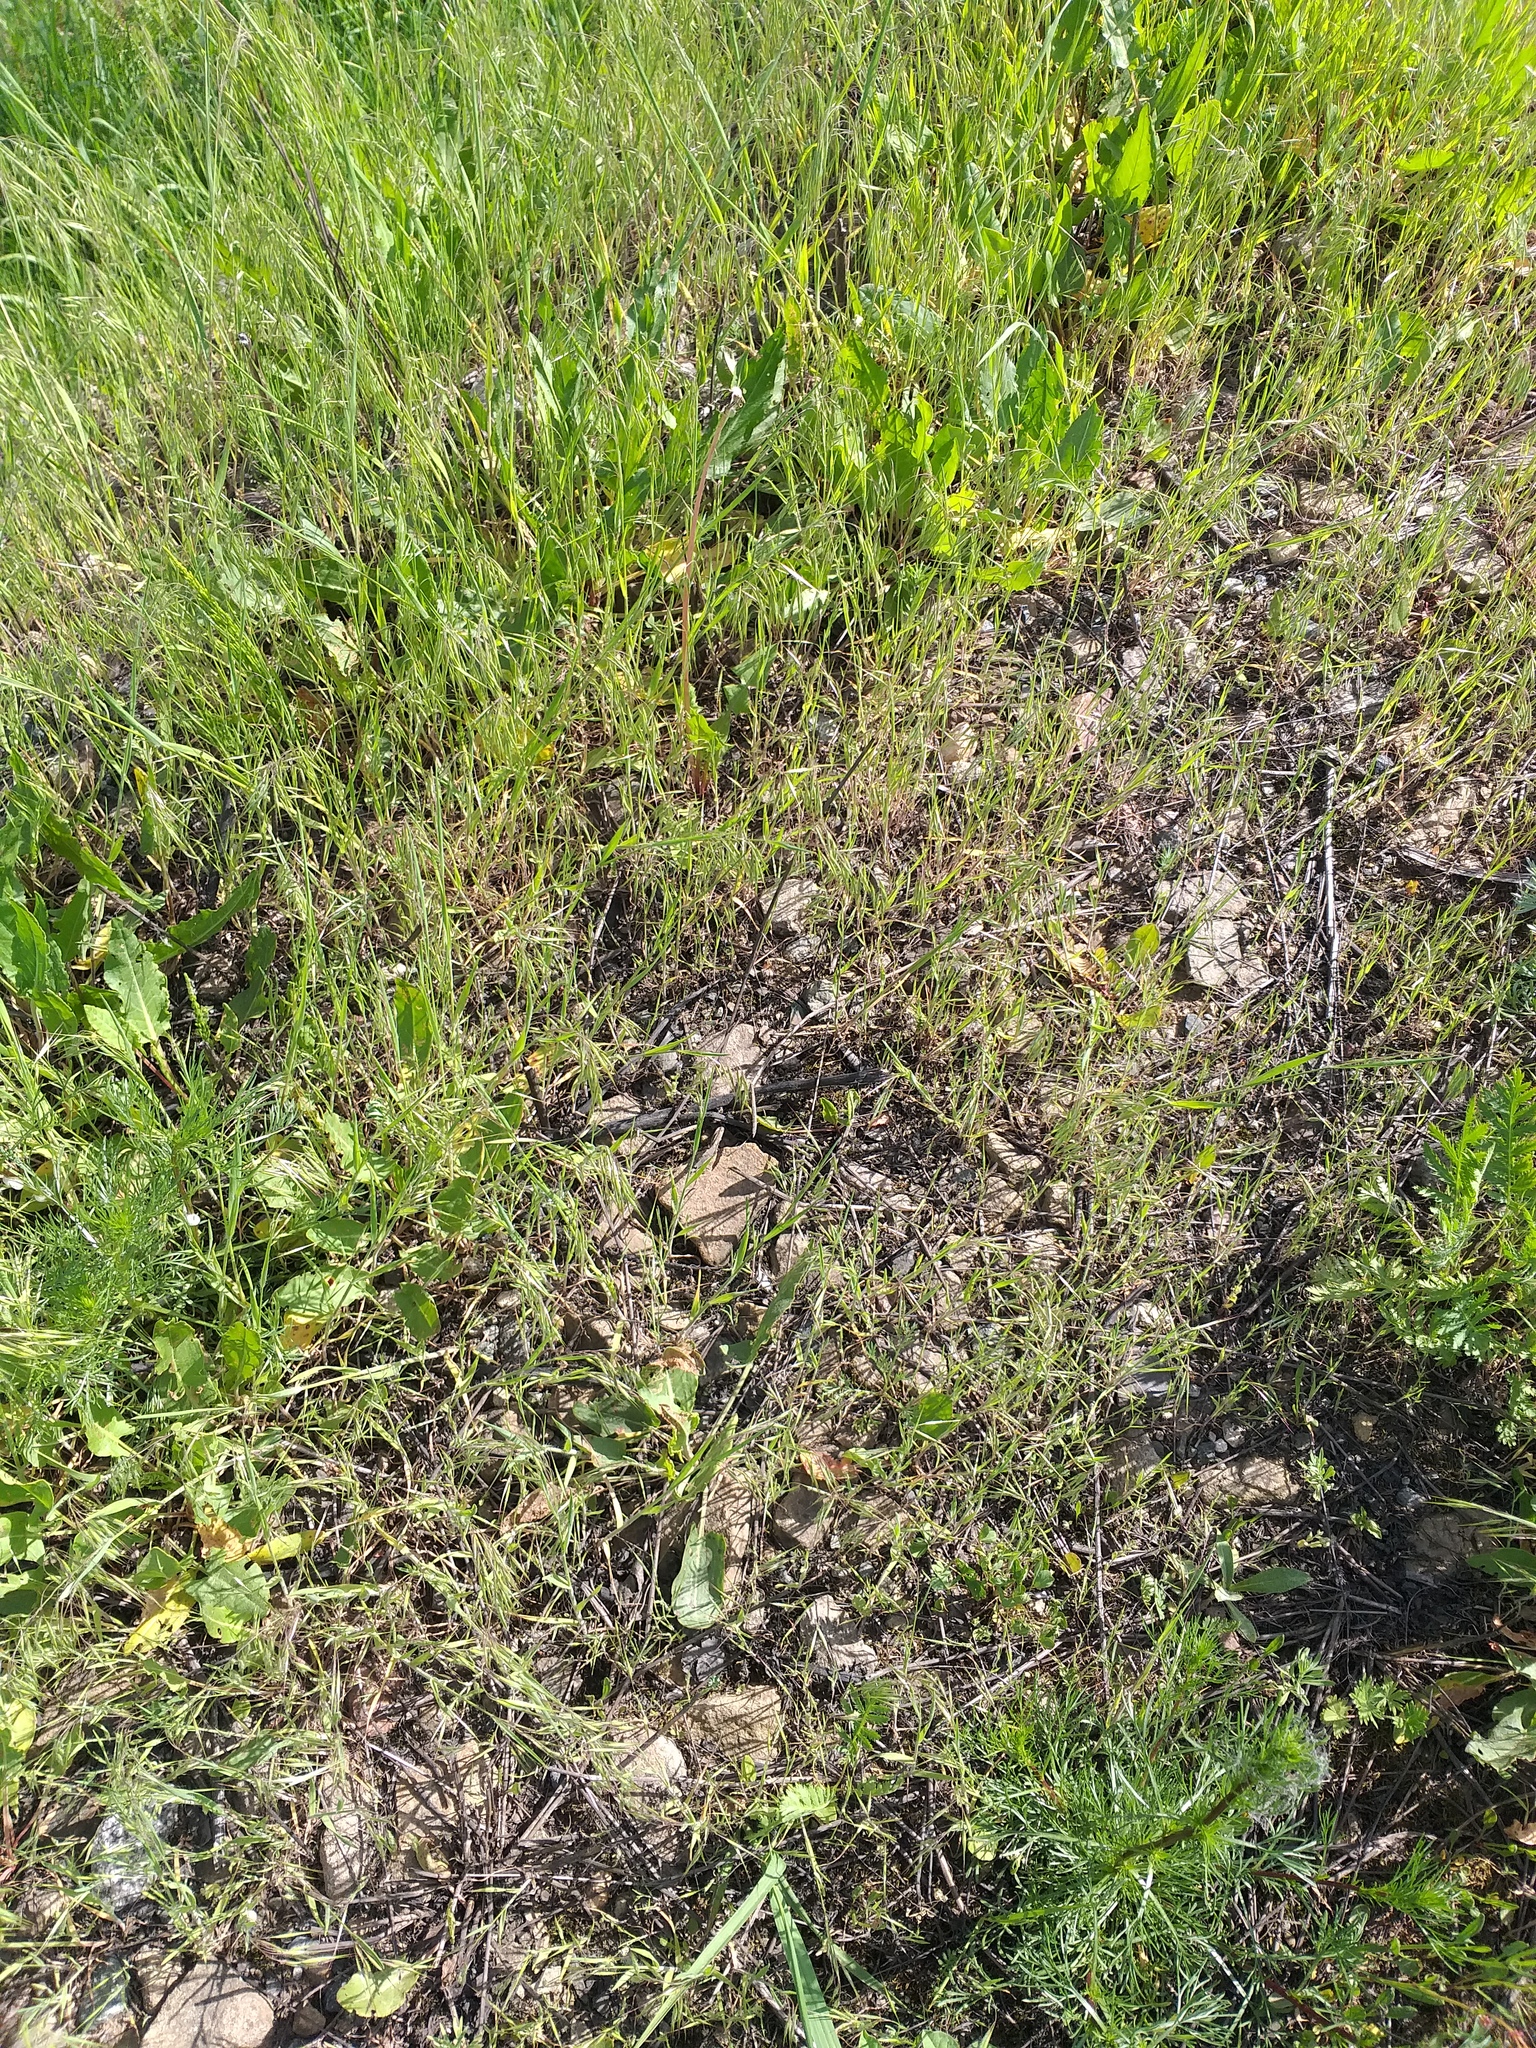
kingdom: Plantae
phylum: Tracheophyta
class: Liliopsida
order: Poales
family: Poaceae
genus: Bromus
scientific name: Bromus tectorum
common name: Cheatgrass
